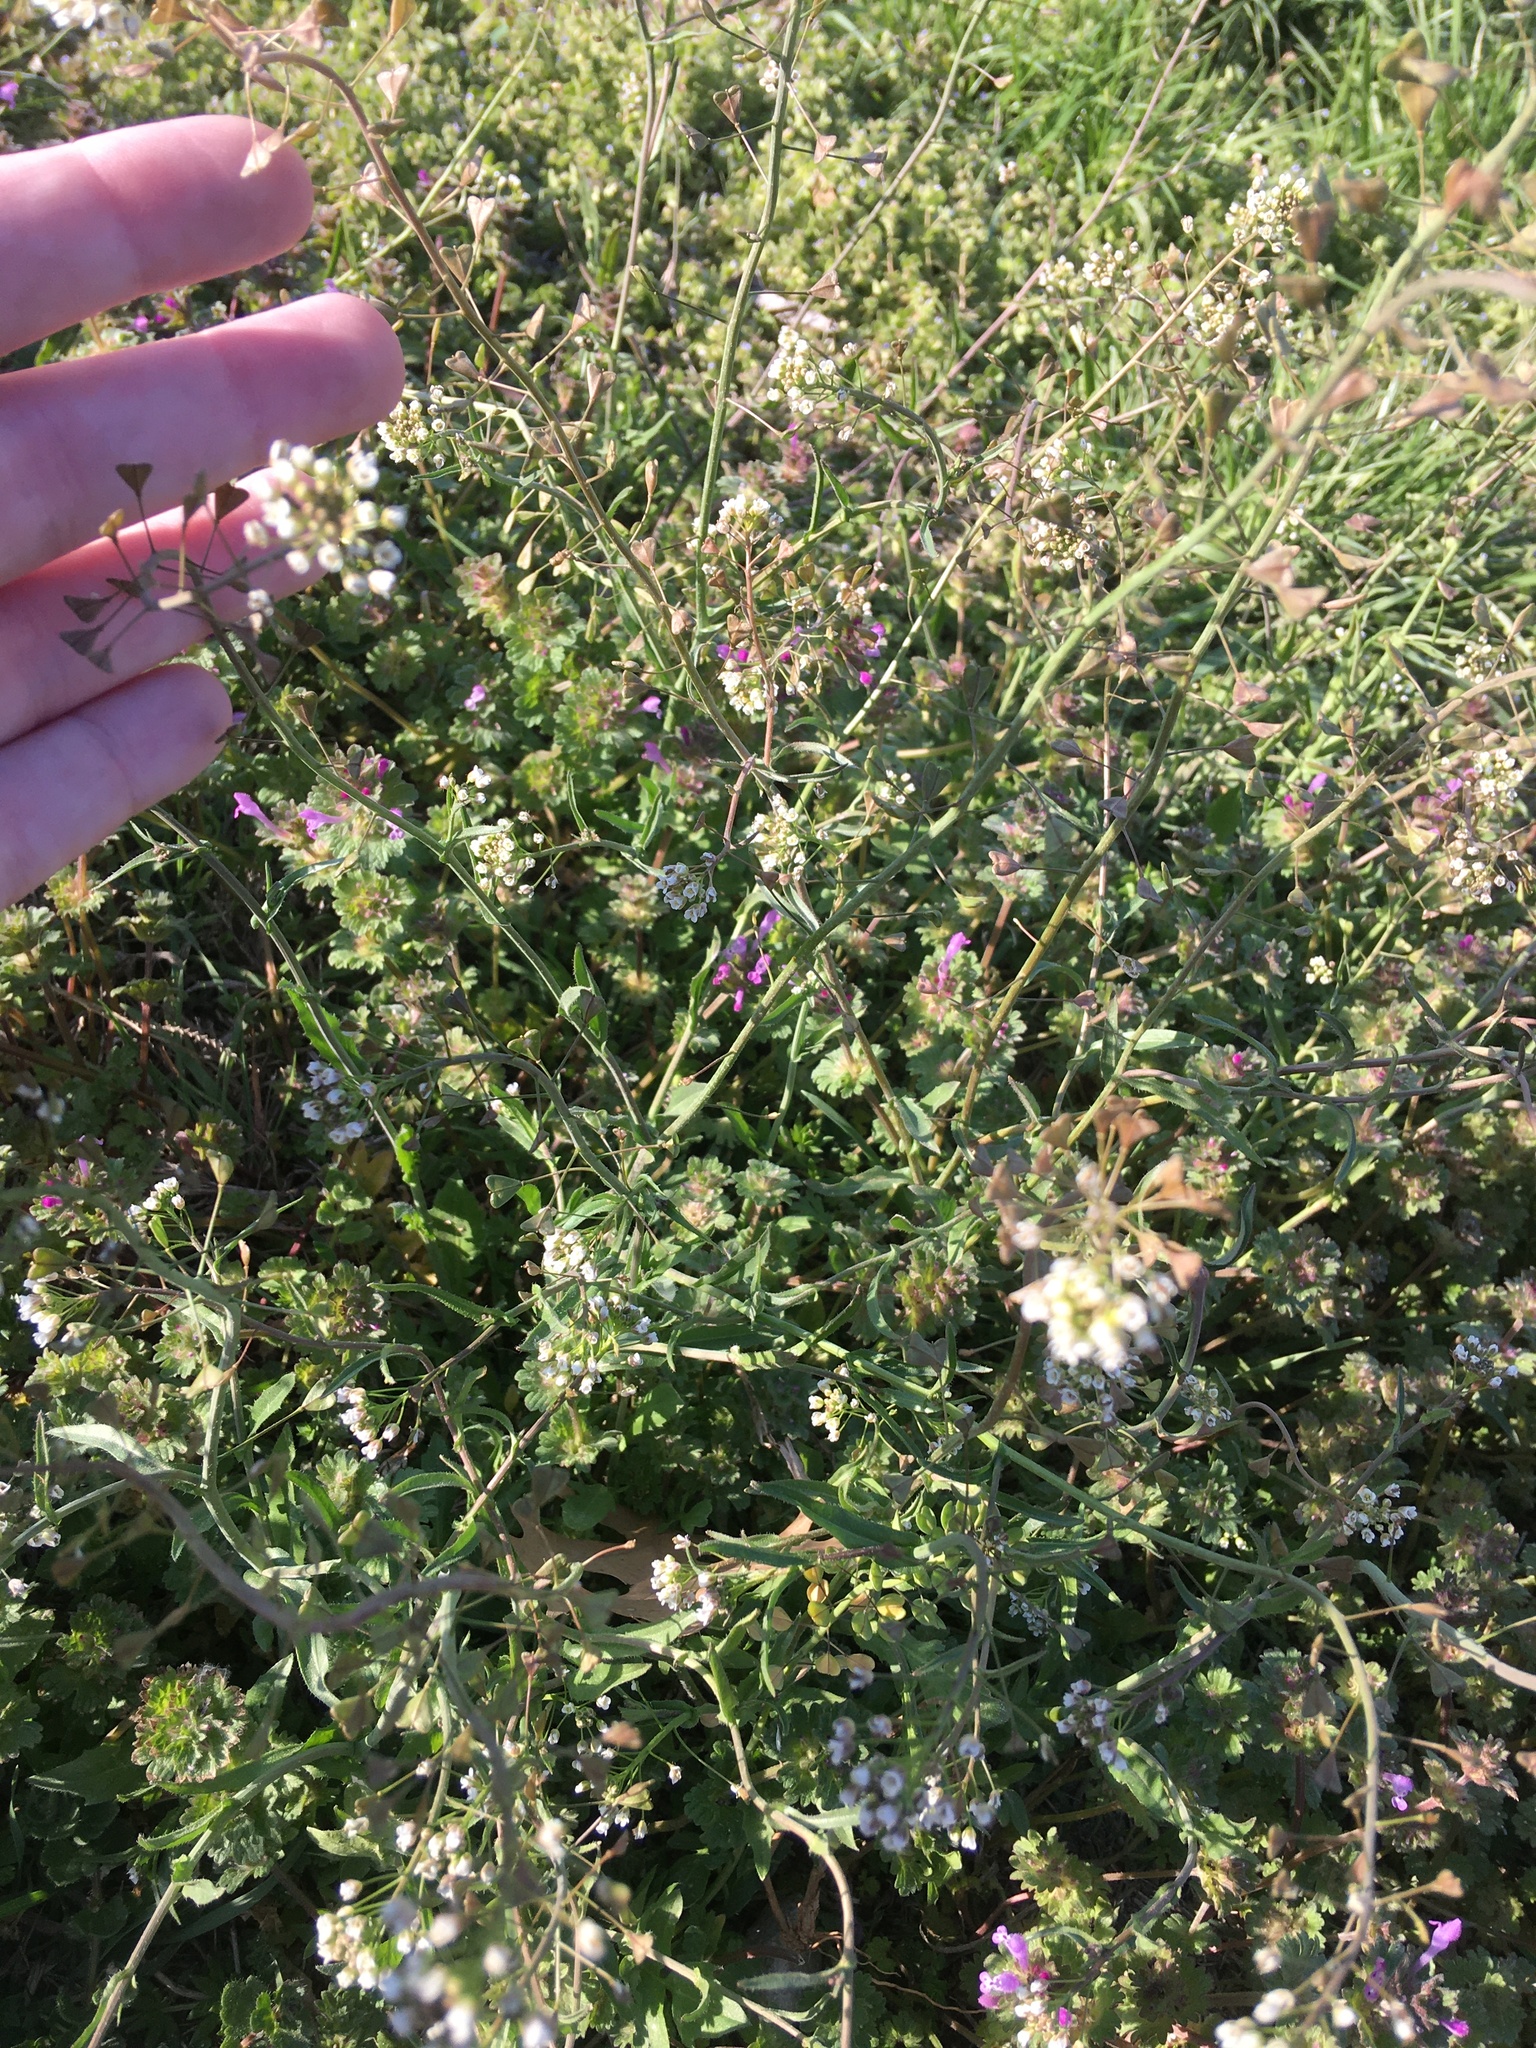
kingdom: Plantae
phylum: Tracheophyta
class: Magnoliopsida
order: Brassicales
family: Brassicaceae
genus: Capsella
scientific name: Capsella bursa-pastoris
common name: Shepherd's purse
